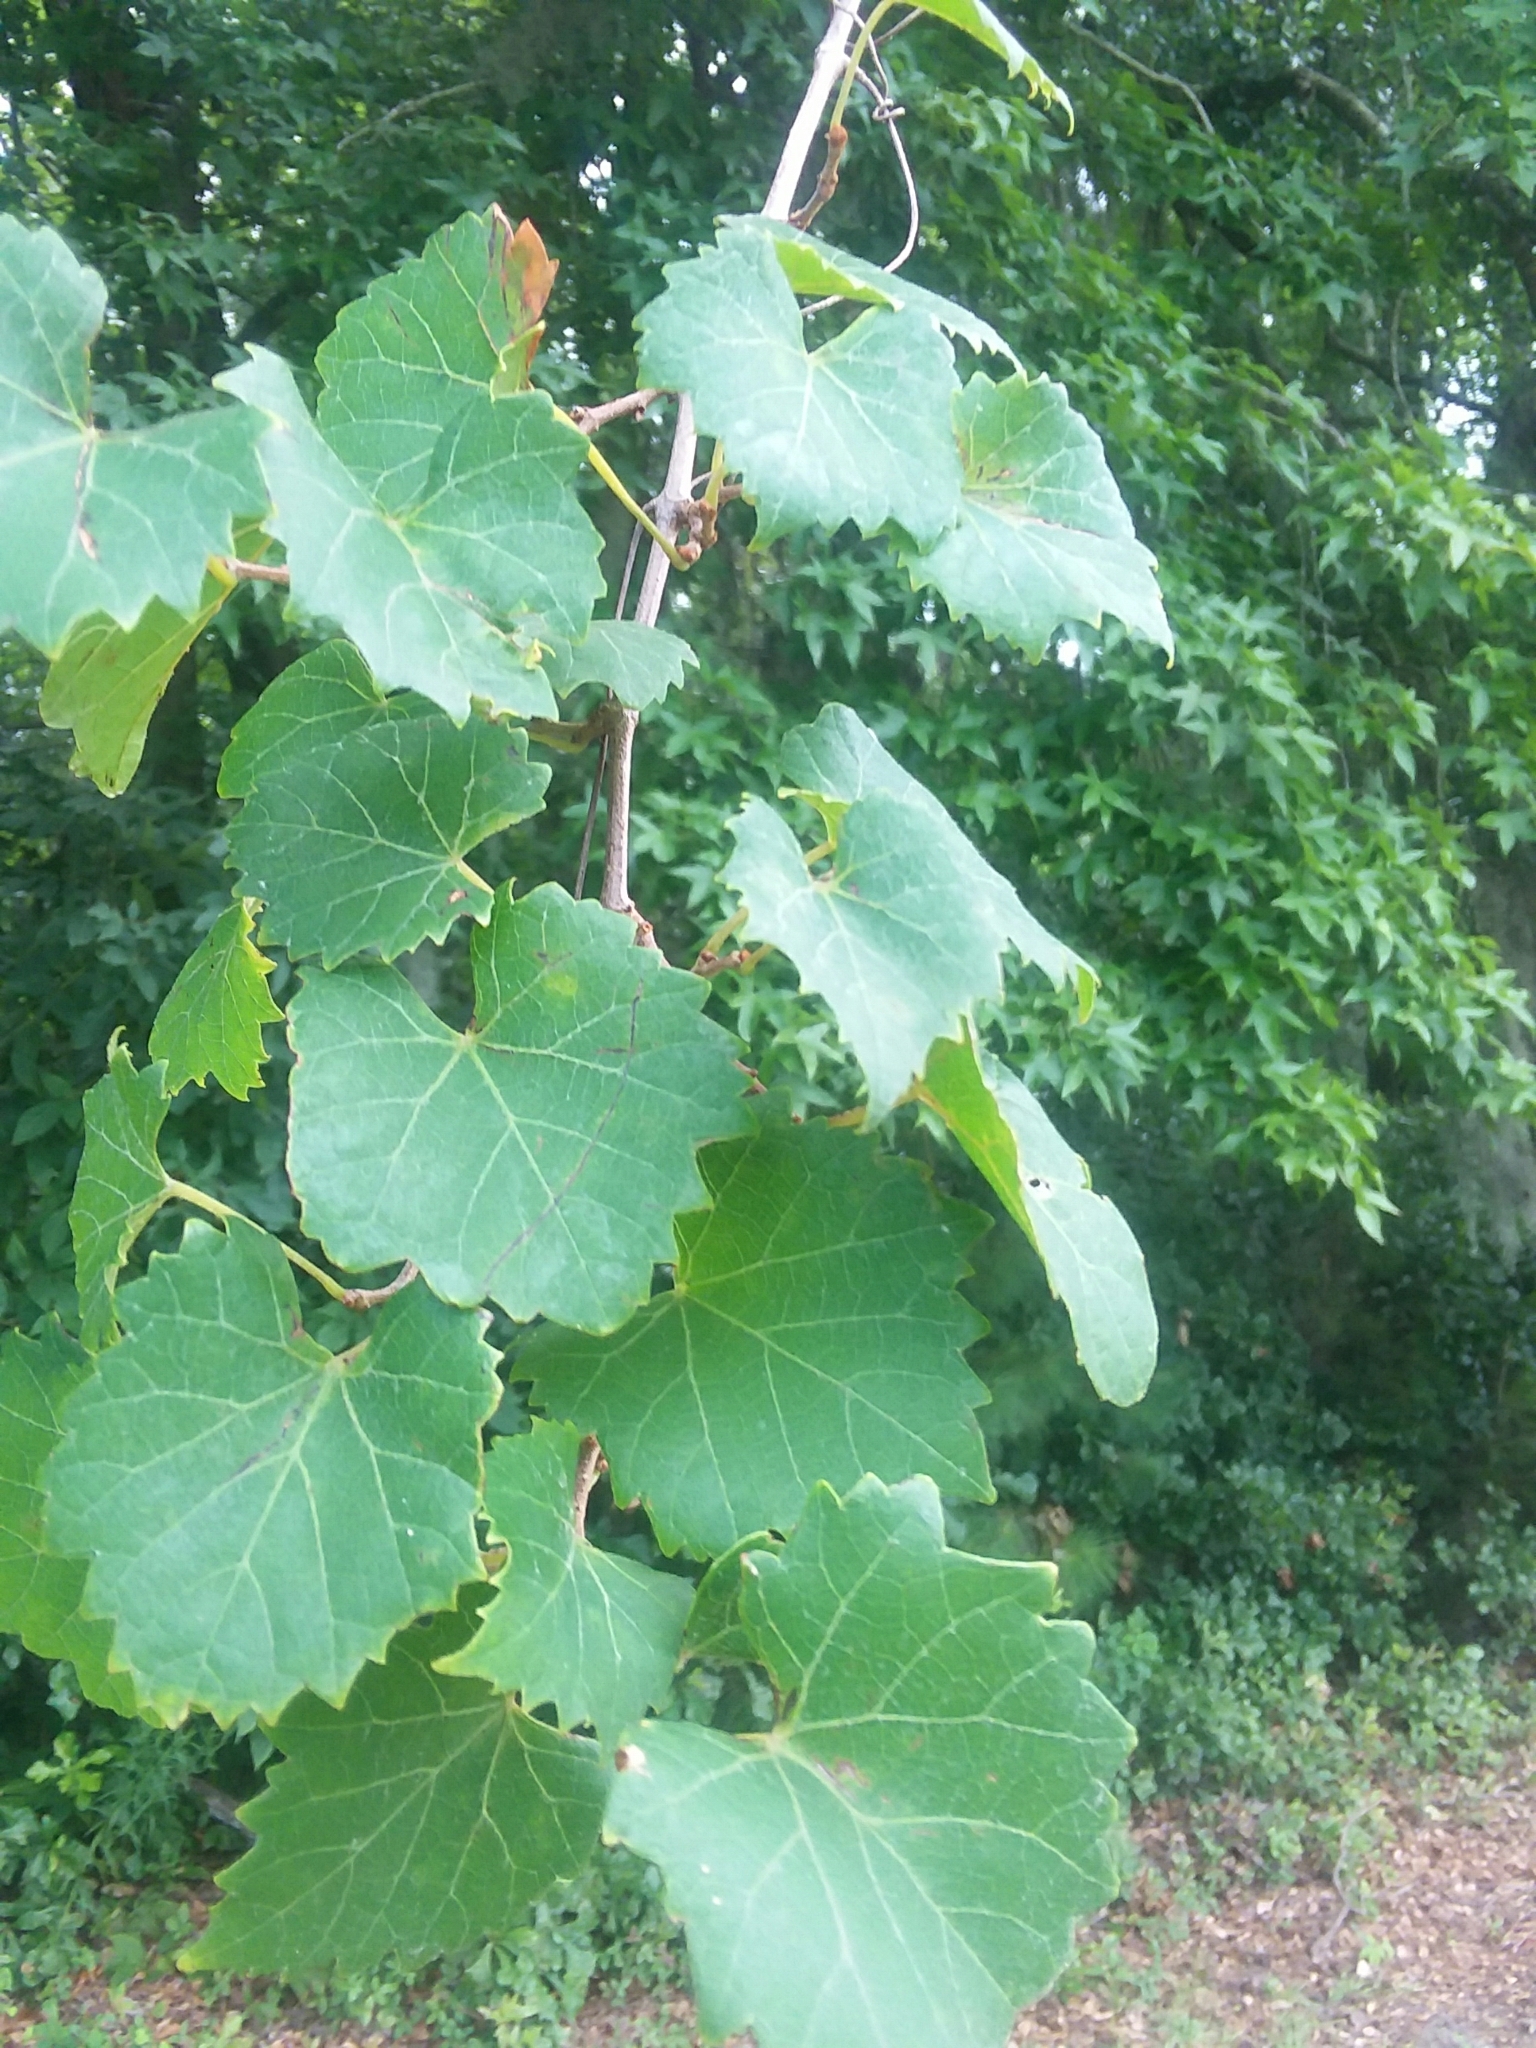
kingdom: Plantae
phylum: Tracheophyta
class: Magnoliopsida
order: Vitales
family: Vitaceae
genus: Vitis
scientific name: Vitis rotundifolia
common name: Muscadine grape
